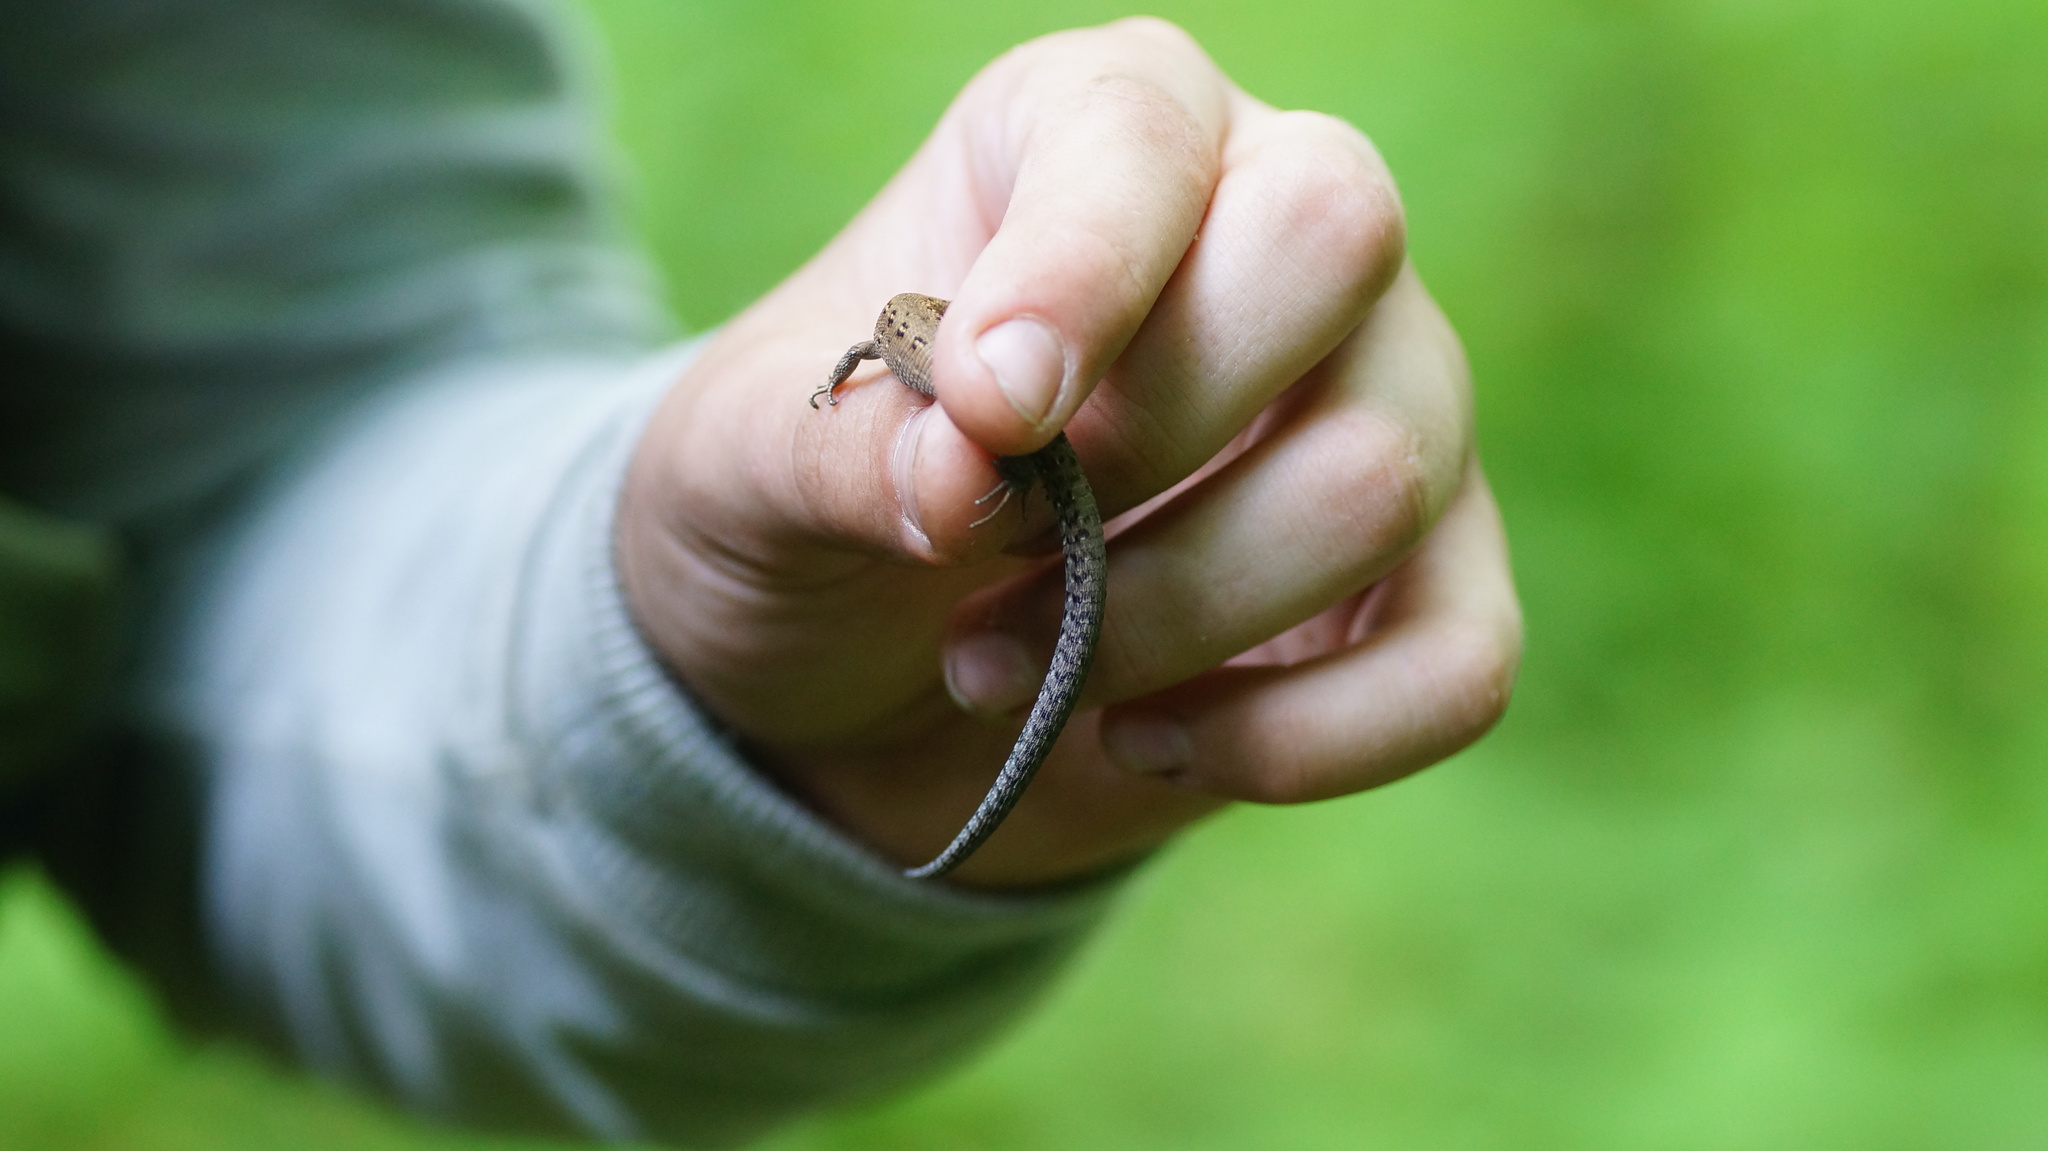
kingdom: Animalia
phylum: Chordata
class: Squamata
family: Lacertidae
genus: Zootoca
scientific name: Zootoca vivipara
